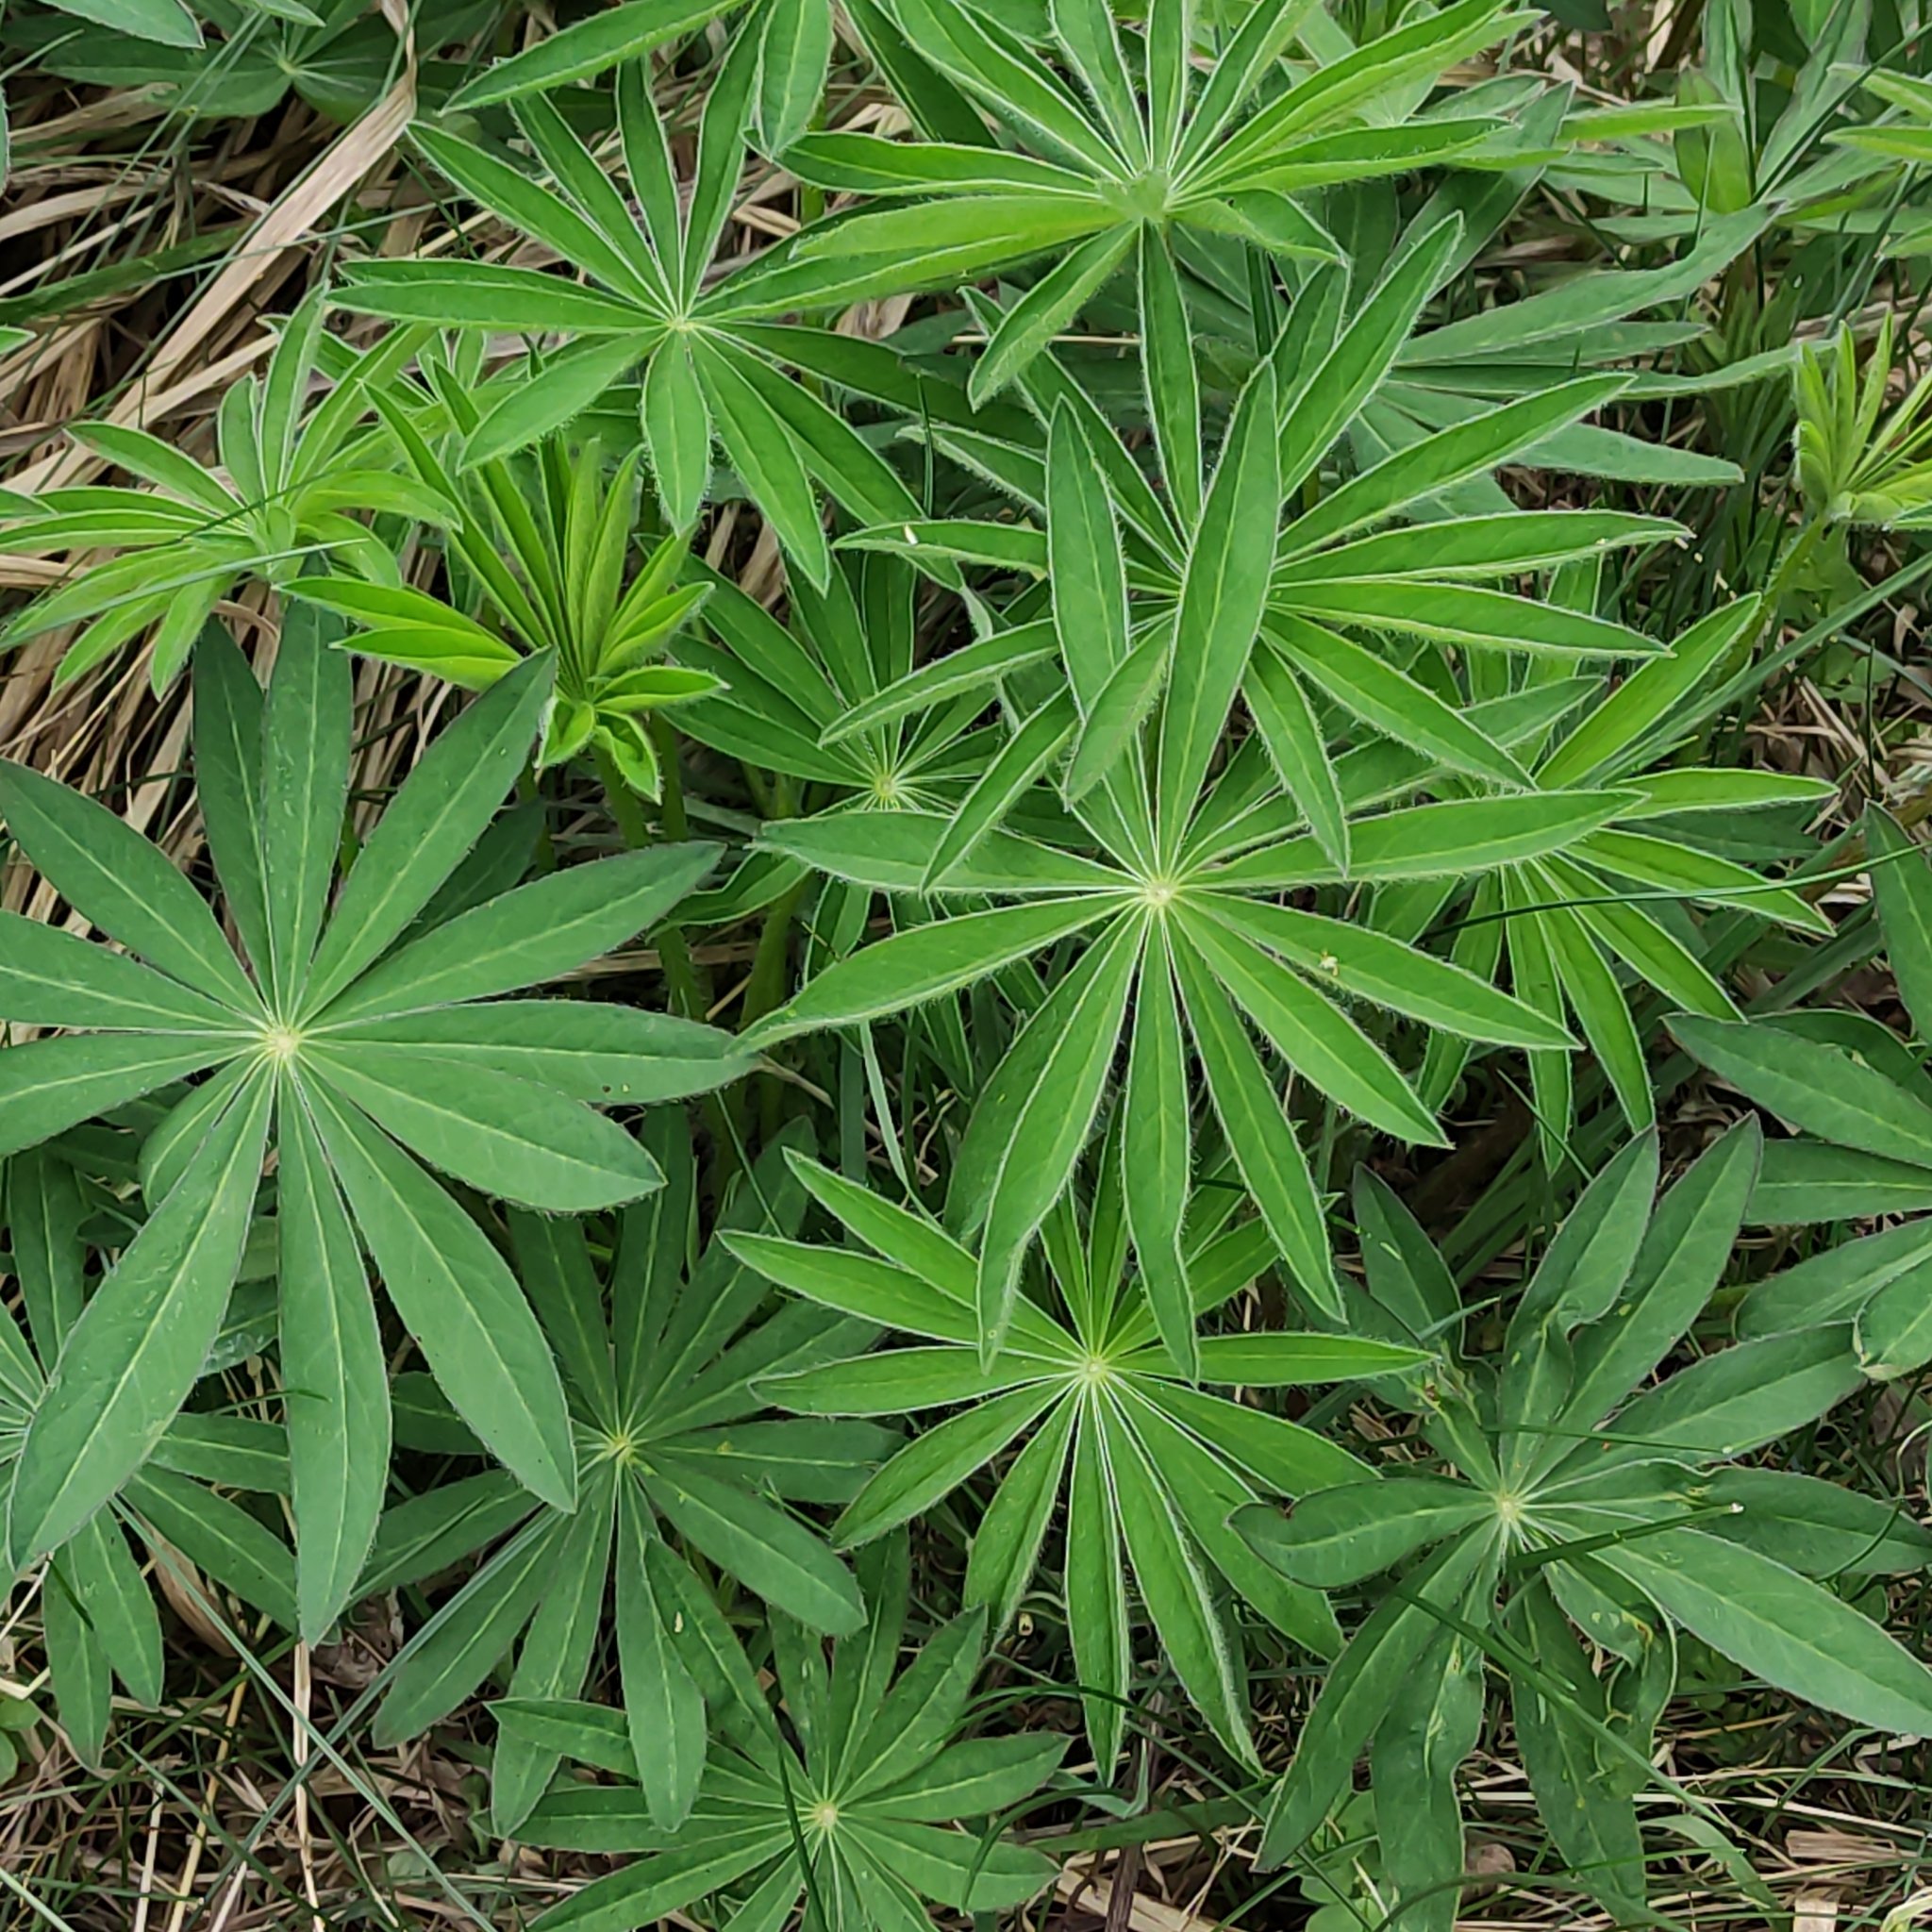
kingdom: Plantae
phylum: Tracheophyta
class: Magnoliopsida
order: Fabales
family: Fabaceae
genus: Lupinus
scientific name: Lupinus polyphyllus
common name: Garden lupin
